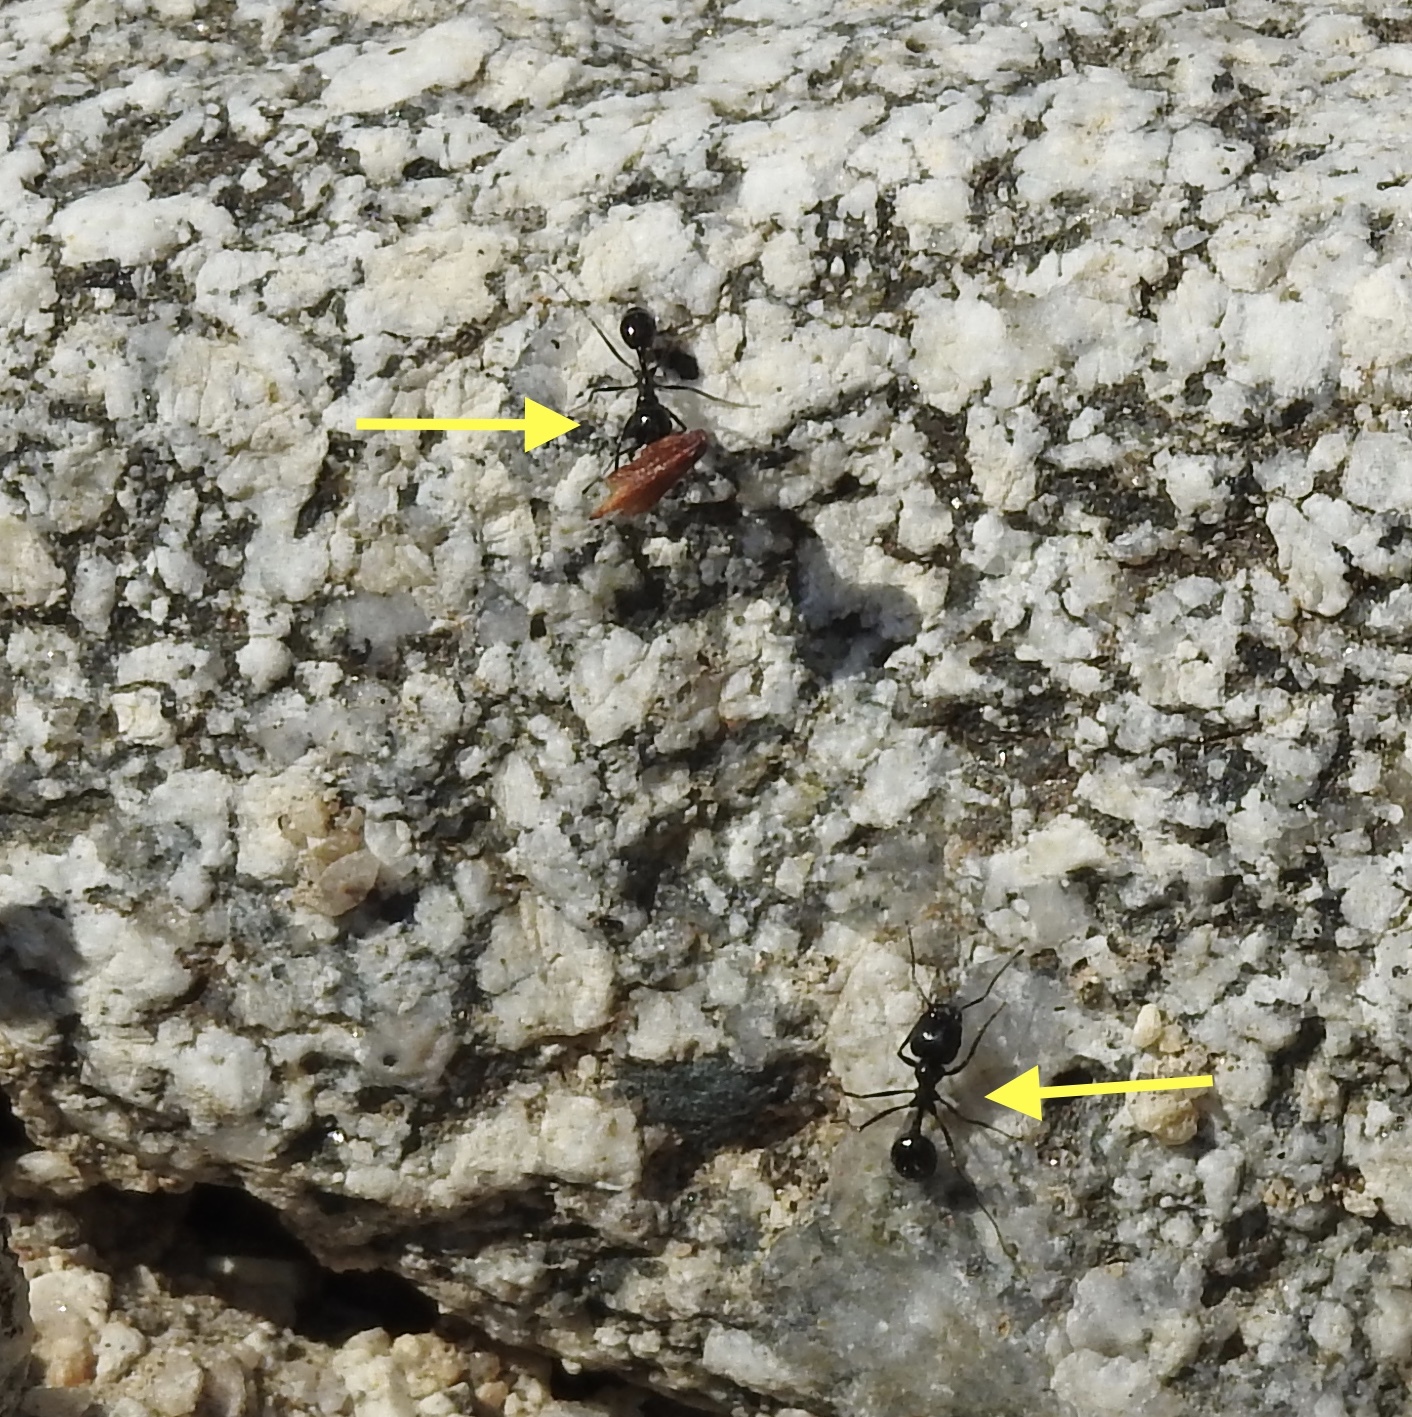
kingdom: Animalia
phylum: Arthropoda
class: Insecta
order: Hymenoptera
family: Formicidae
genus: Messor
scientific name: Messor pergandei
